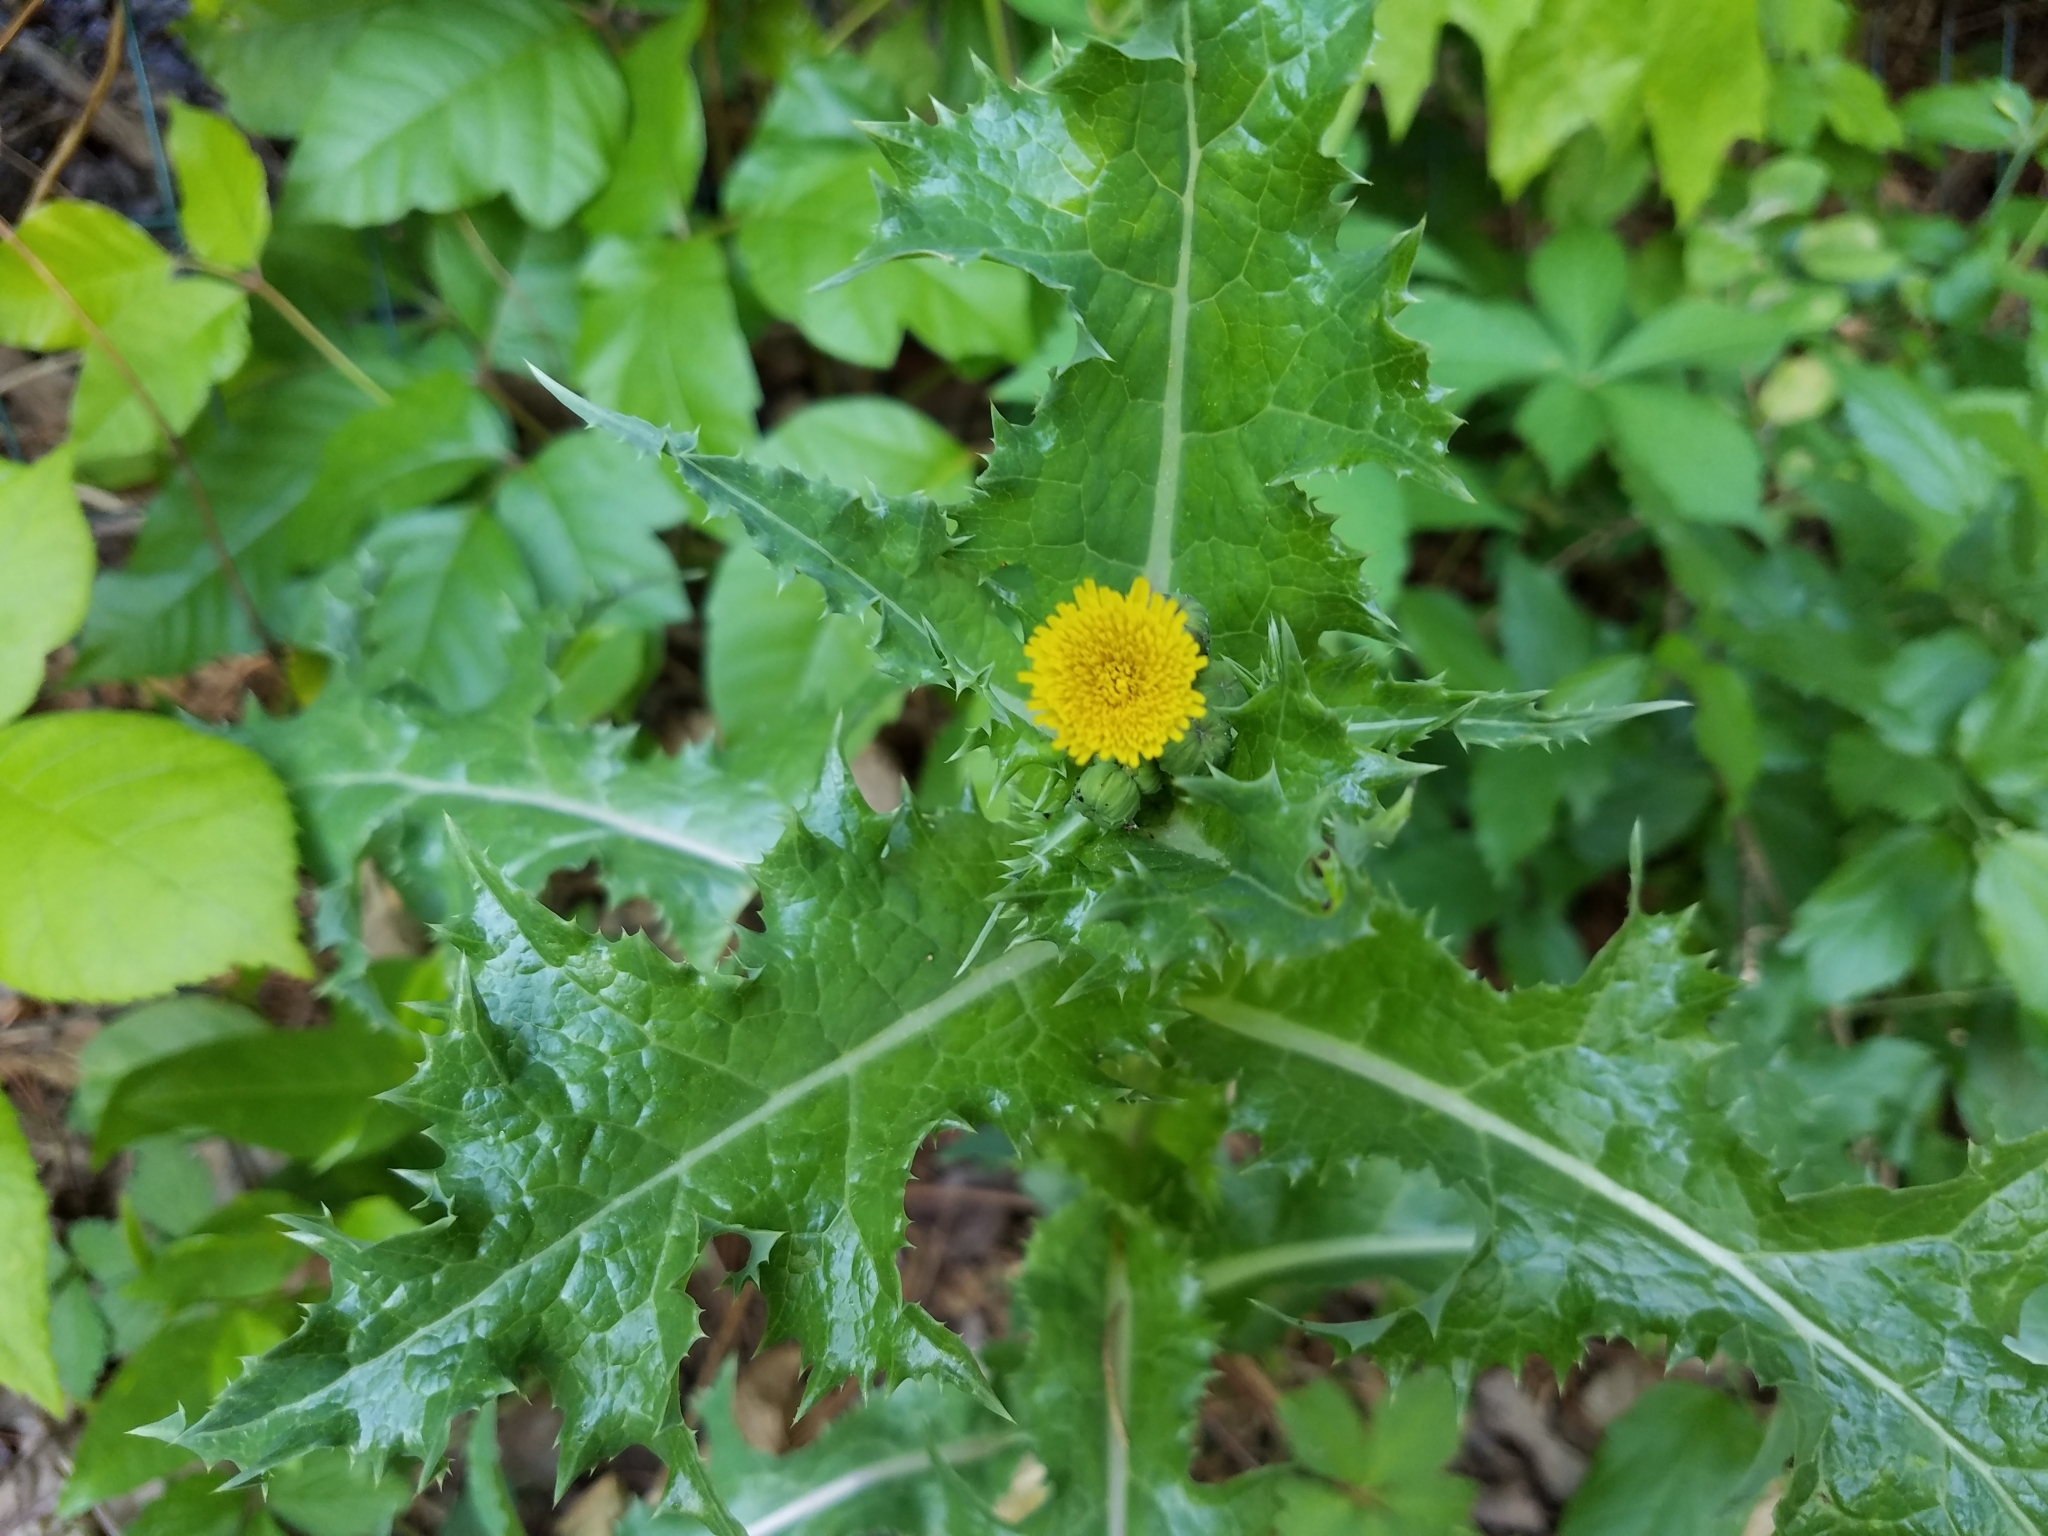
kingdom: Plantae
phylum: Tracheophyta
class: Magnoliopsida
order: Asterales
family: Asteraceae
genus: Sonchus
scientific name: Sonchus asper
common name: Prickly sow-thistle
